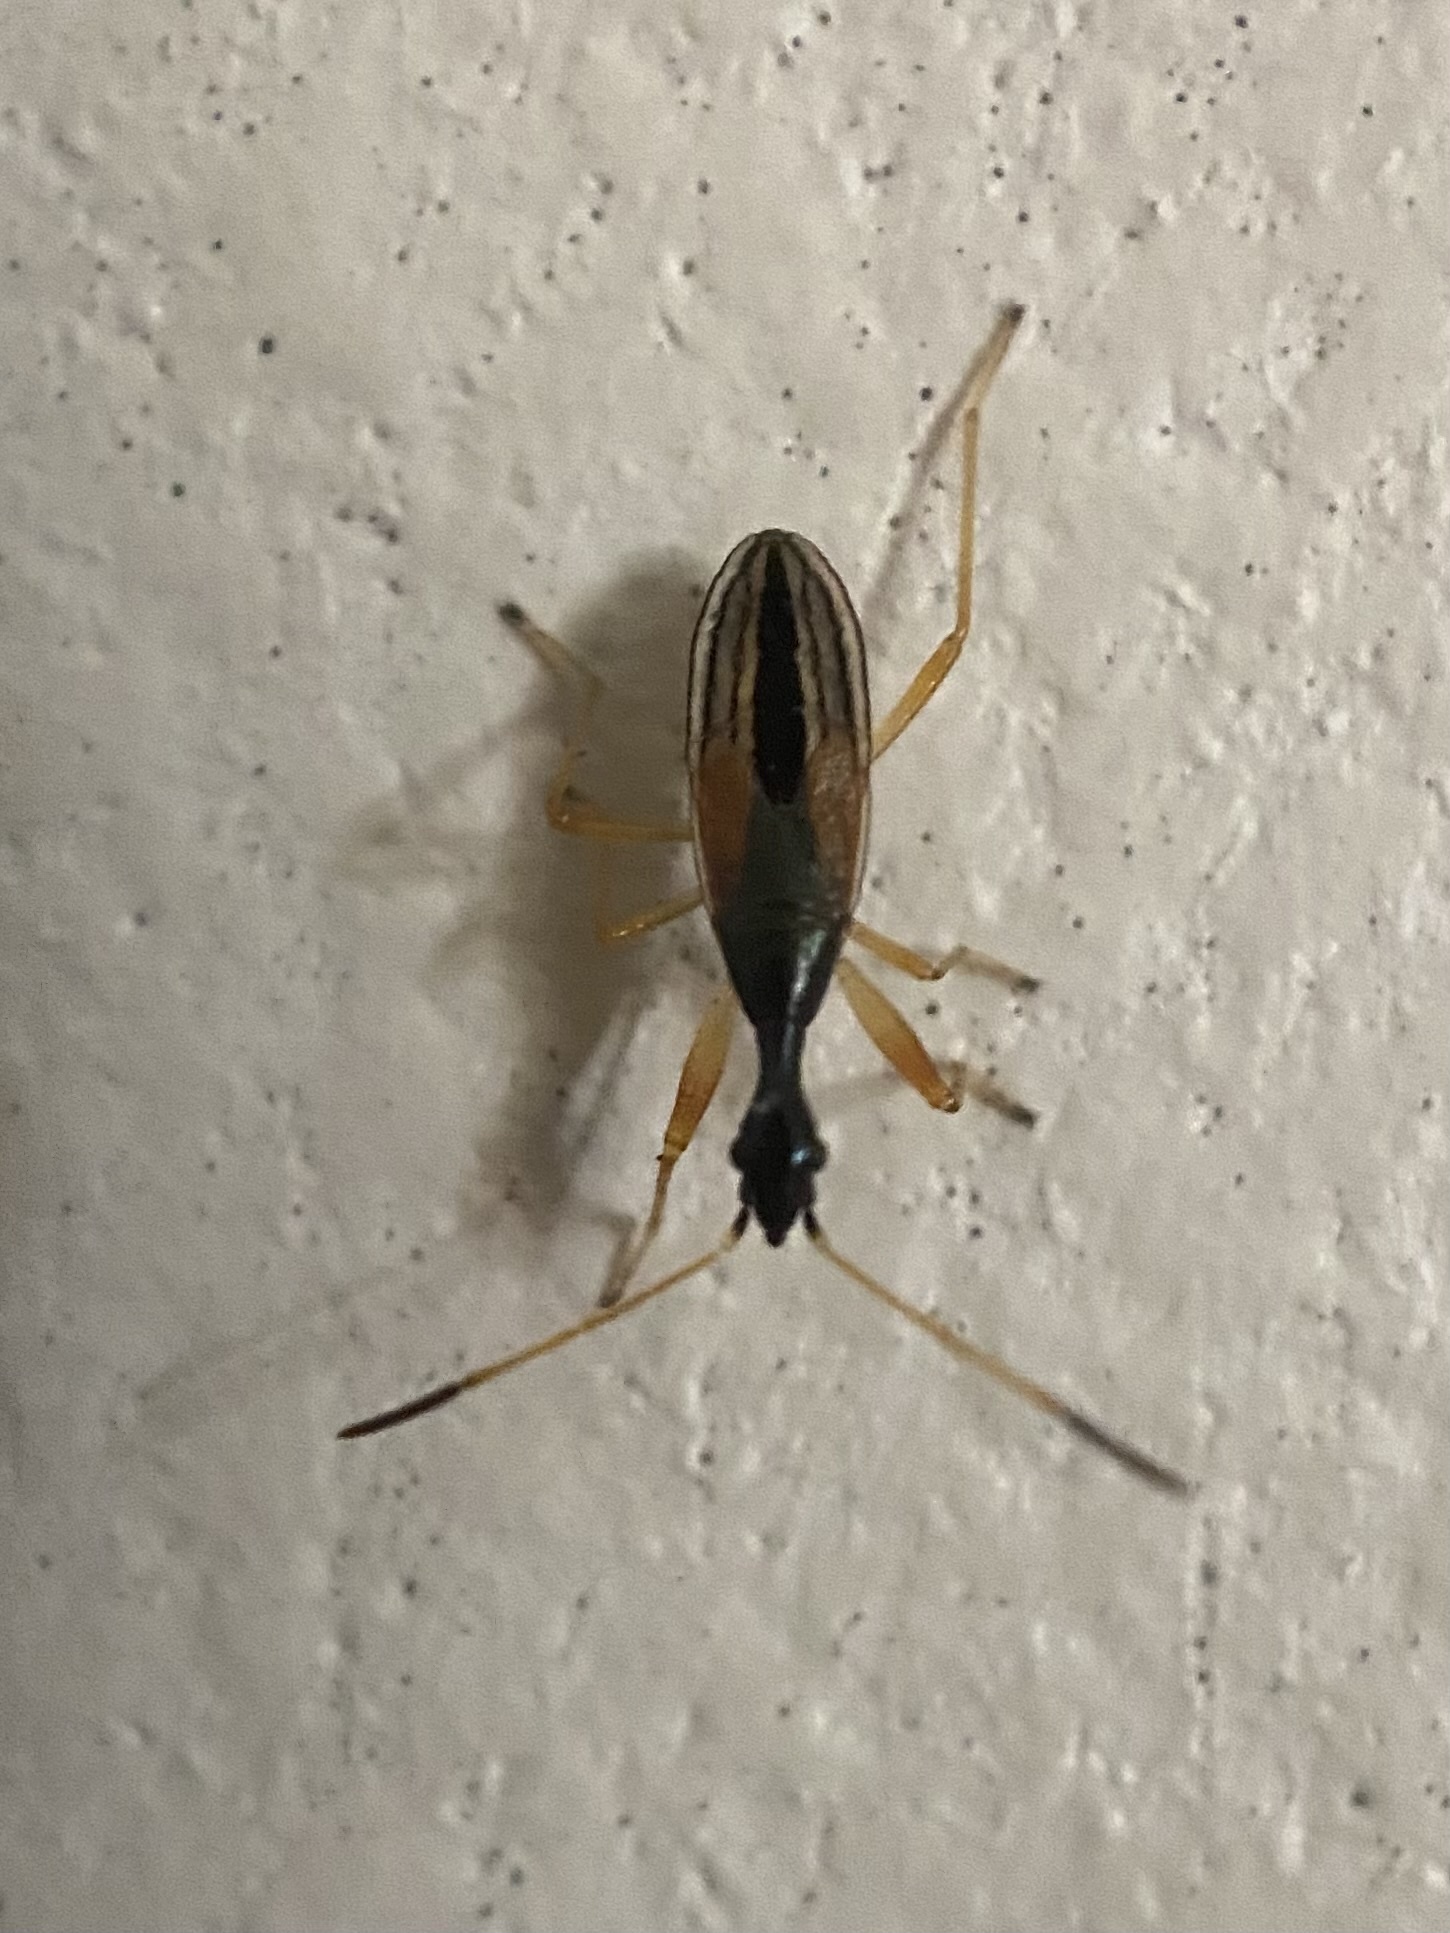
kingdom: Animalia
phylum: Arthropoda
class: Insecta
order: Hemiptera
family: Rhyparochromidae
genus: Myodocha
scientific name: Myodocha serripes
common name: Long-necked seed bug
